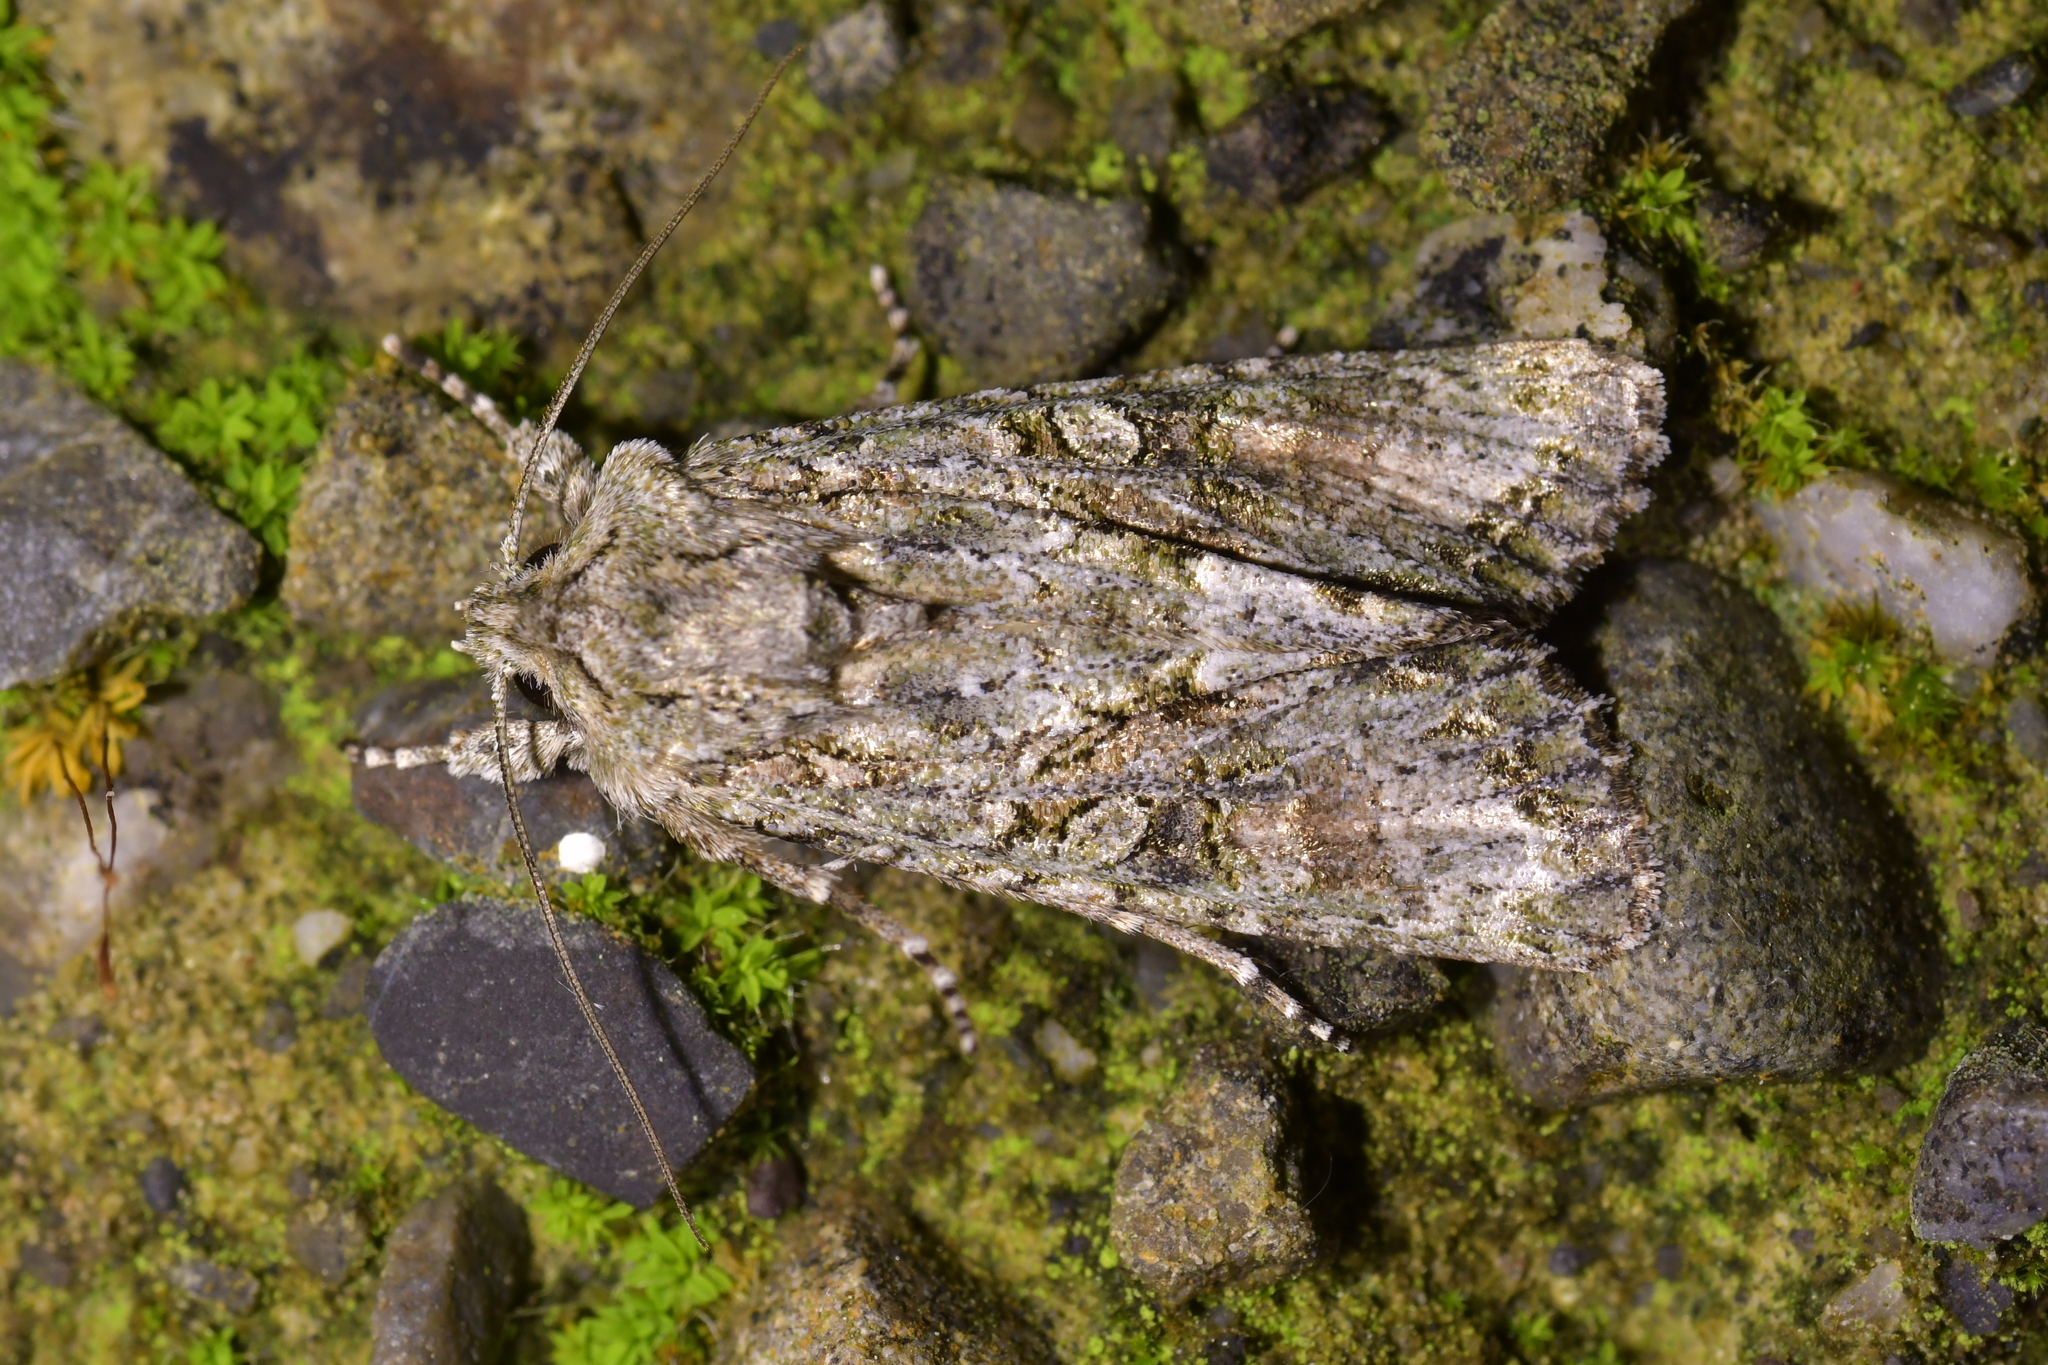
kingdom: Animalia
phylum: Arthropoda
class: Insecta
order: Lepidoptera
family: Noctuidae
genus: Ichneutica
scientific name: Ichneutica mutans
